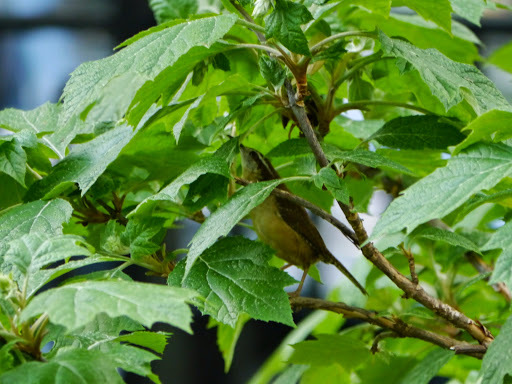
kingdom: Animalia
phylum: Chordata
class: Aves
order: Passeriformes
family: Troglodytidae
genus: Thryothorus
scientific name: Thryothorus ludovicianus
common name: Carolina wren
